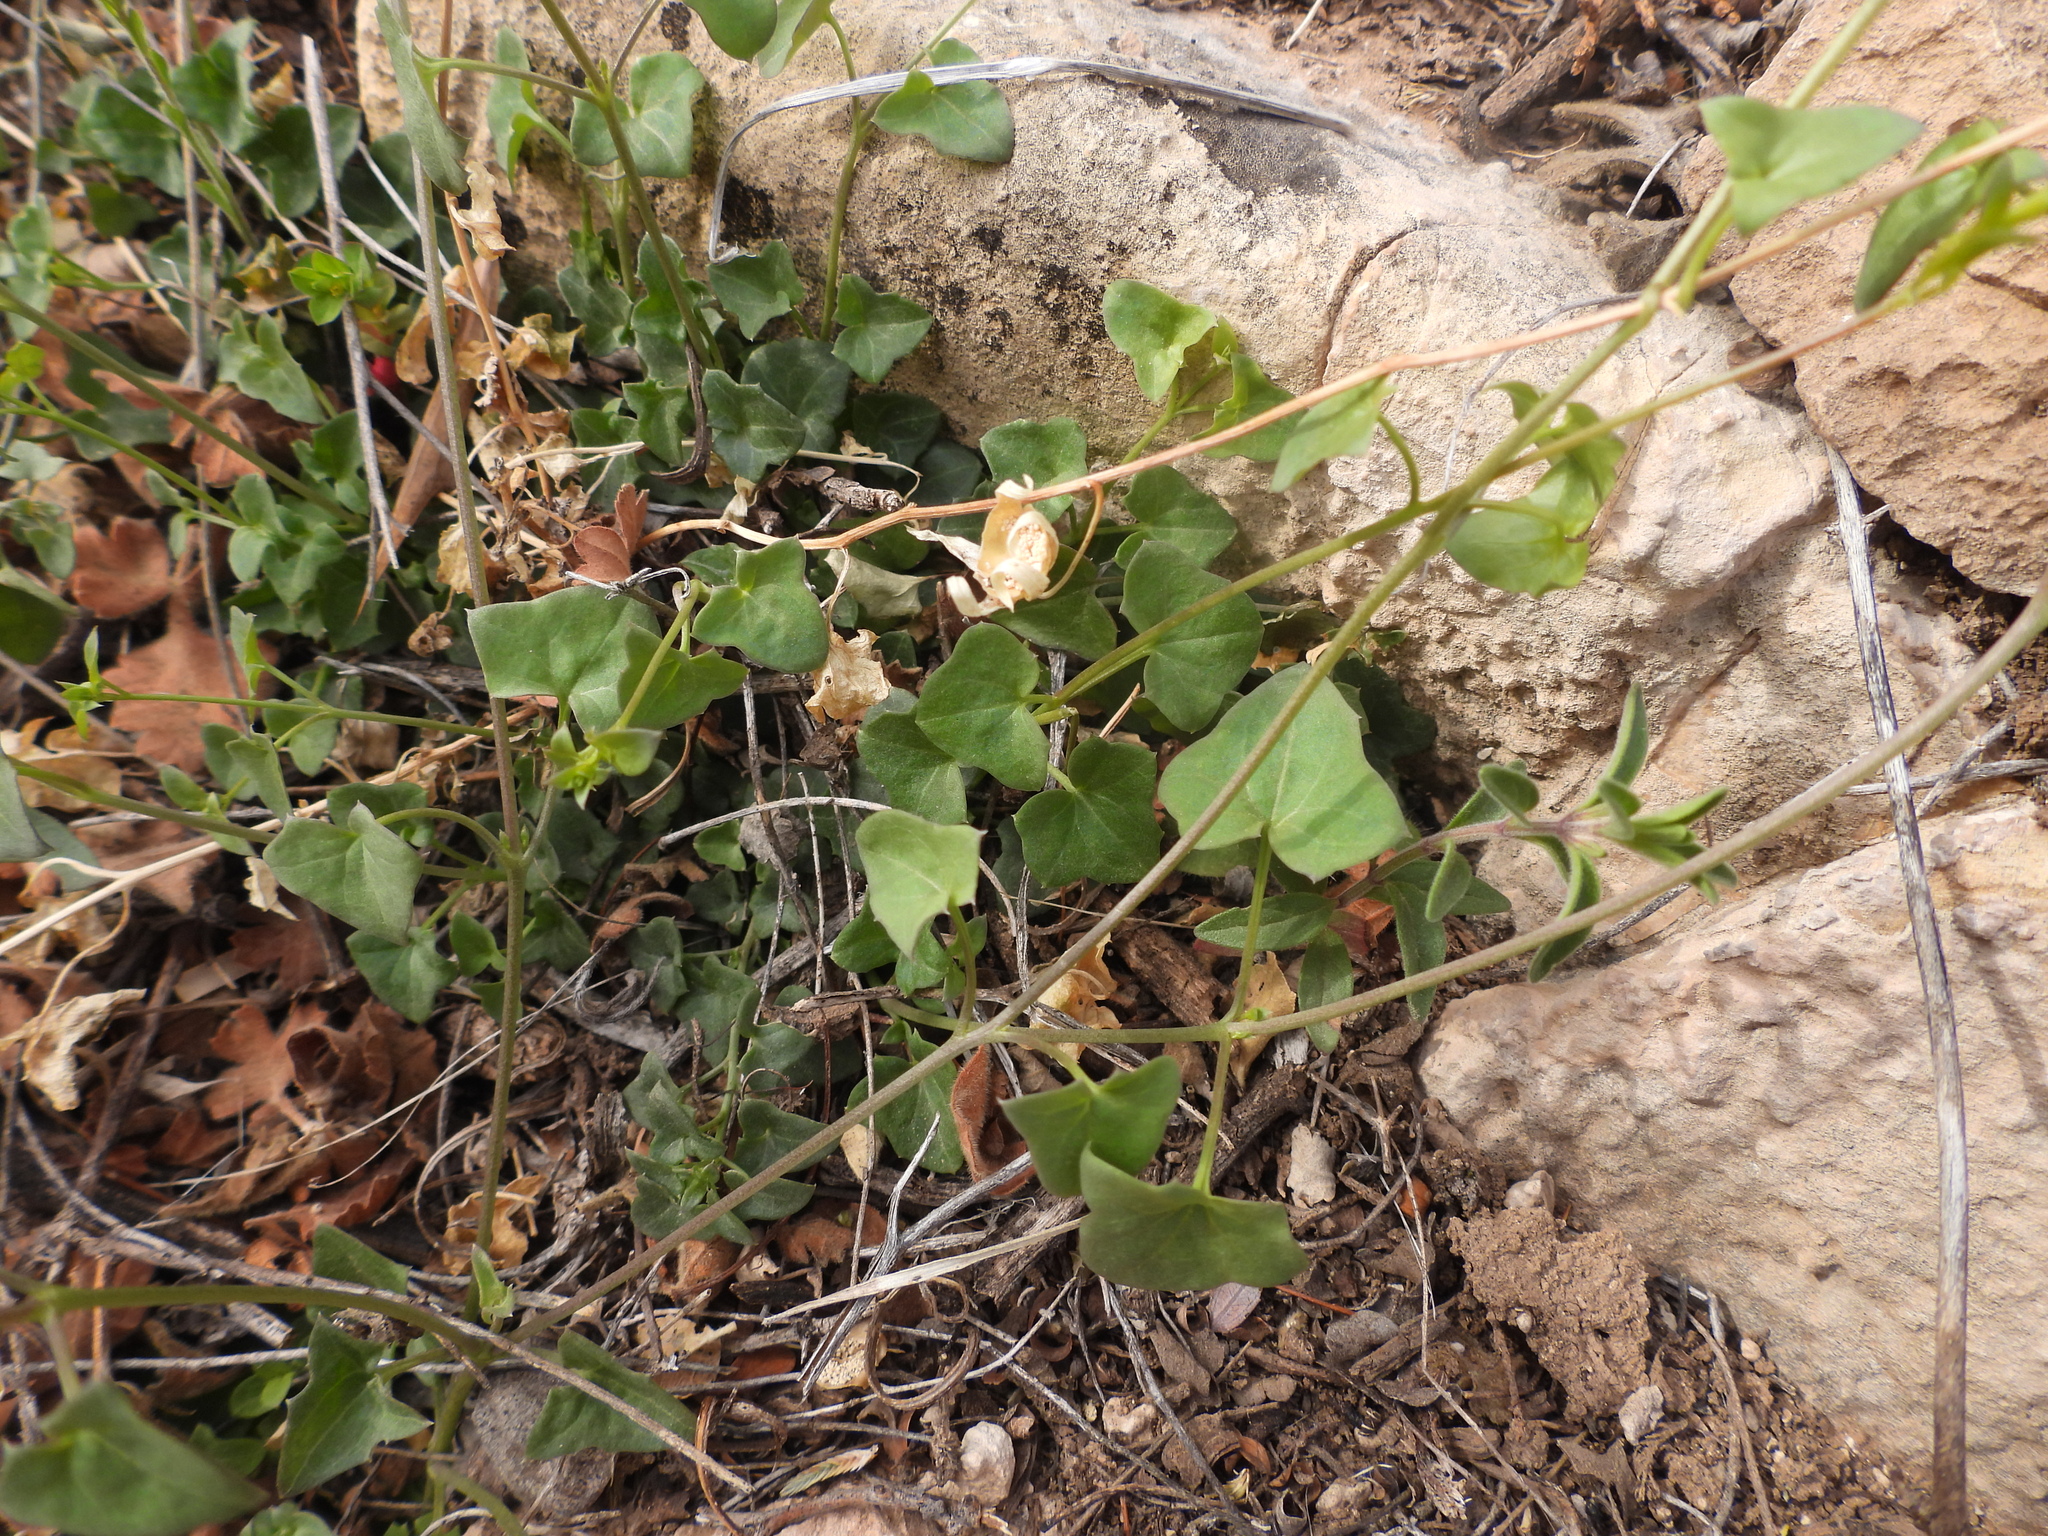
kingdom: Plantae
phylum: Tracheophyta
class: Magnoliopsida
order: Lamiales
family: Plantaginaceae
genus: Maurandella
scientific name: Maurandella antirrhiniflora
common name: Violet twining-snapdragon
